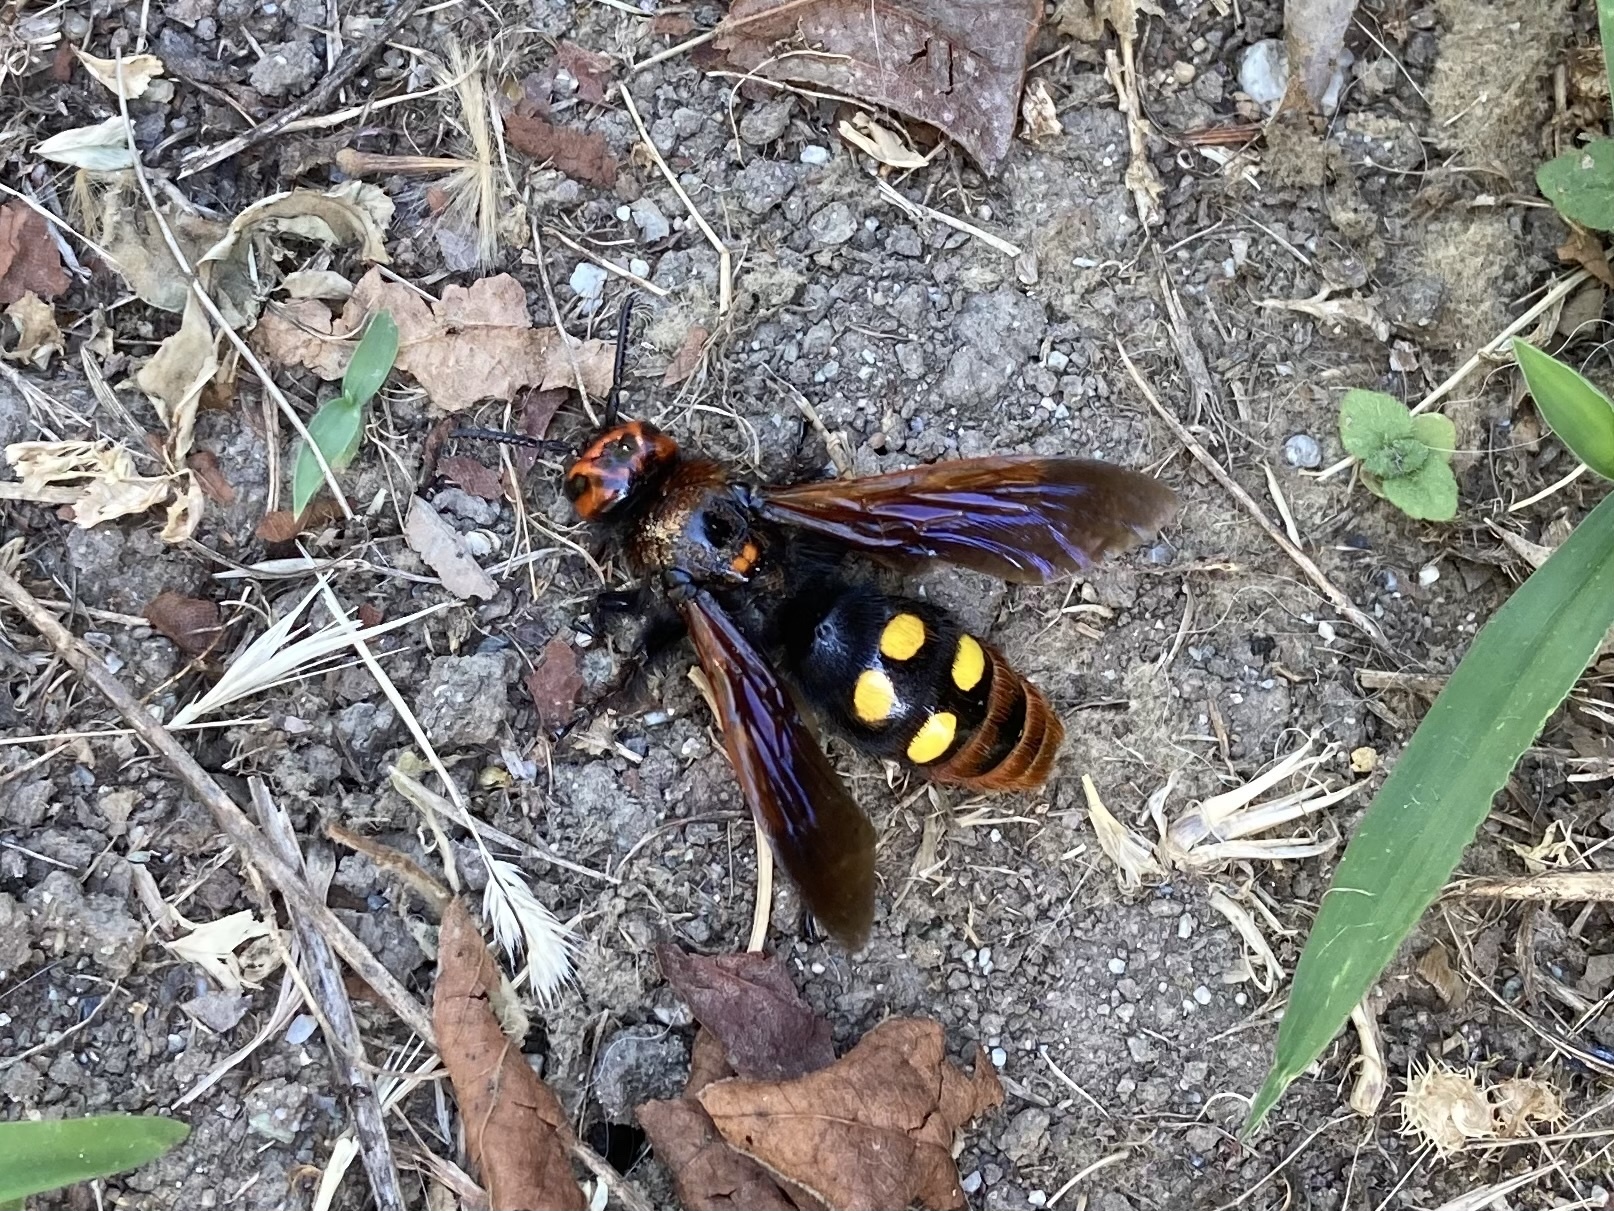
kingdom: Animalia
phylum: Arthropoda
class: Insecta
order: Hymenoptera
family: Scoliidae
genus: Megascolia
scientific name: Megascolia maculata
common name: Mammoth wasp
